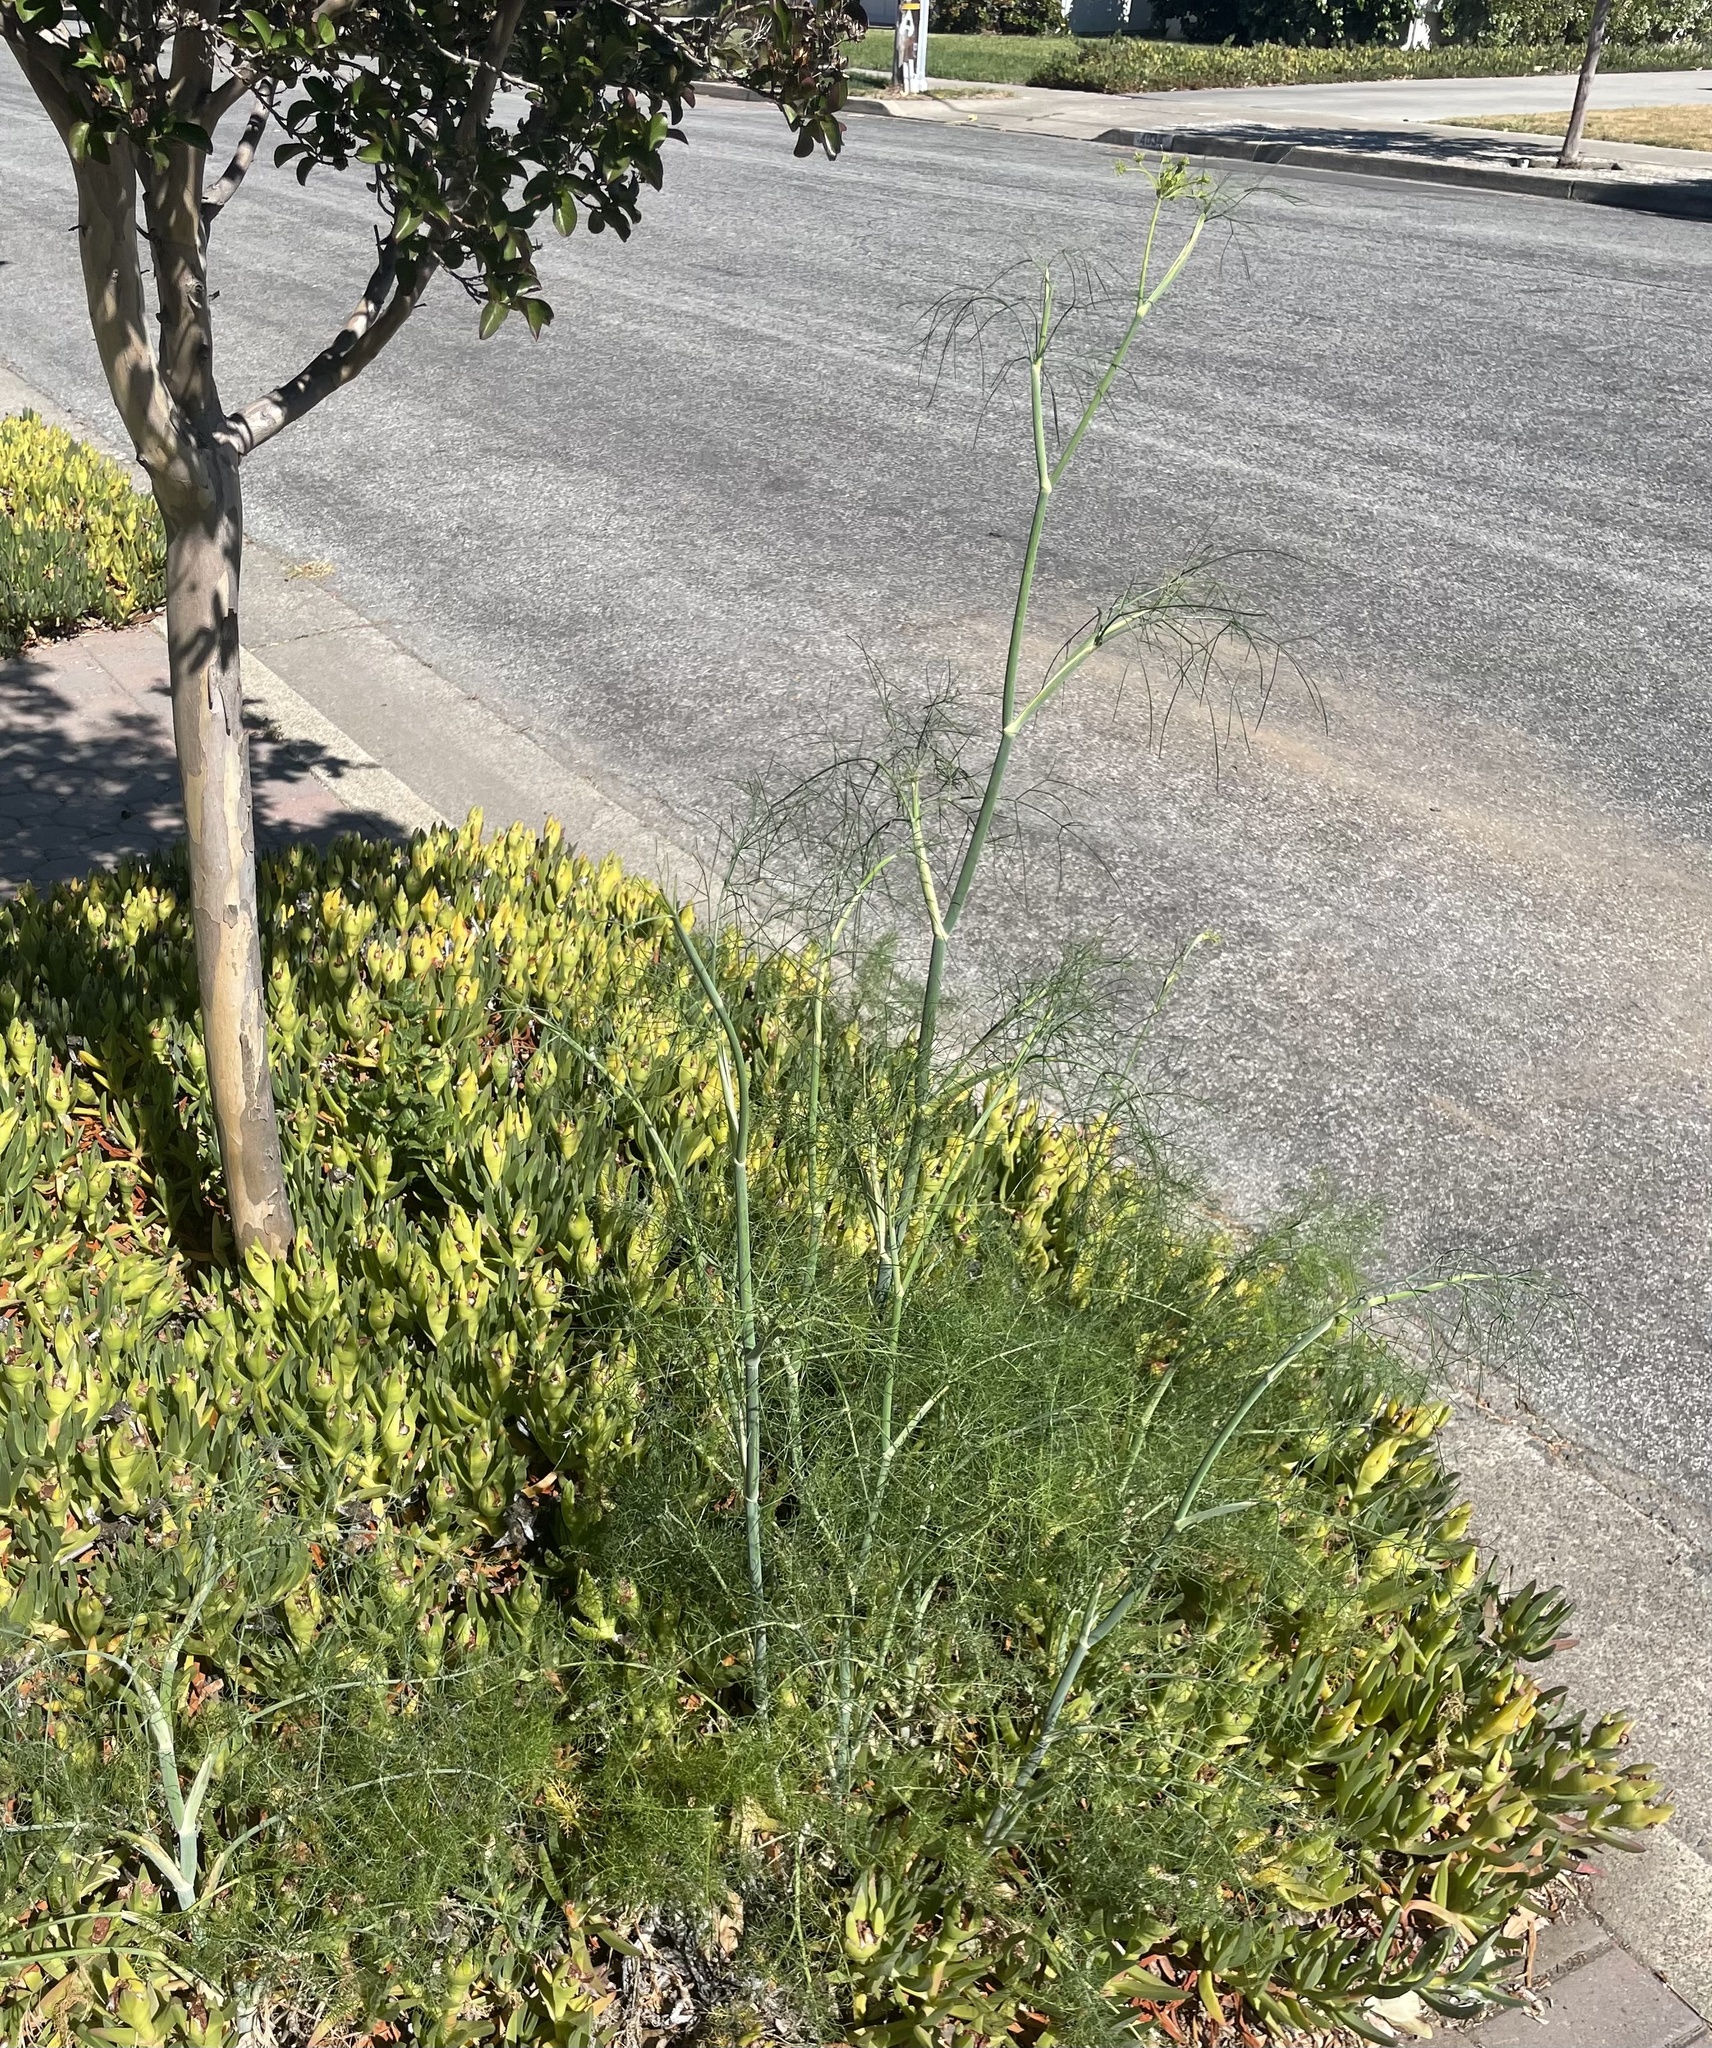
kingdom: Plantae
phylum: Tracheophyta
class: Magnoliopsida
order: Apiales
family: Apiaceae
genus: Foeniculum
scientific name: Foeniculum vulgare
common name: Fennel
